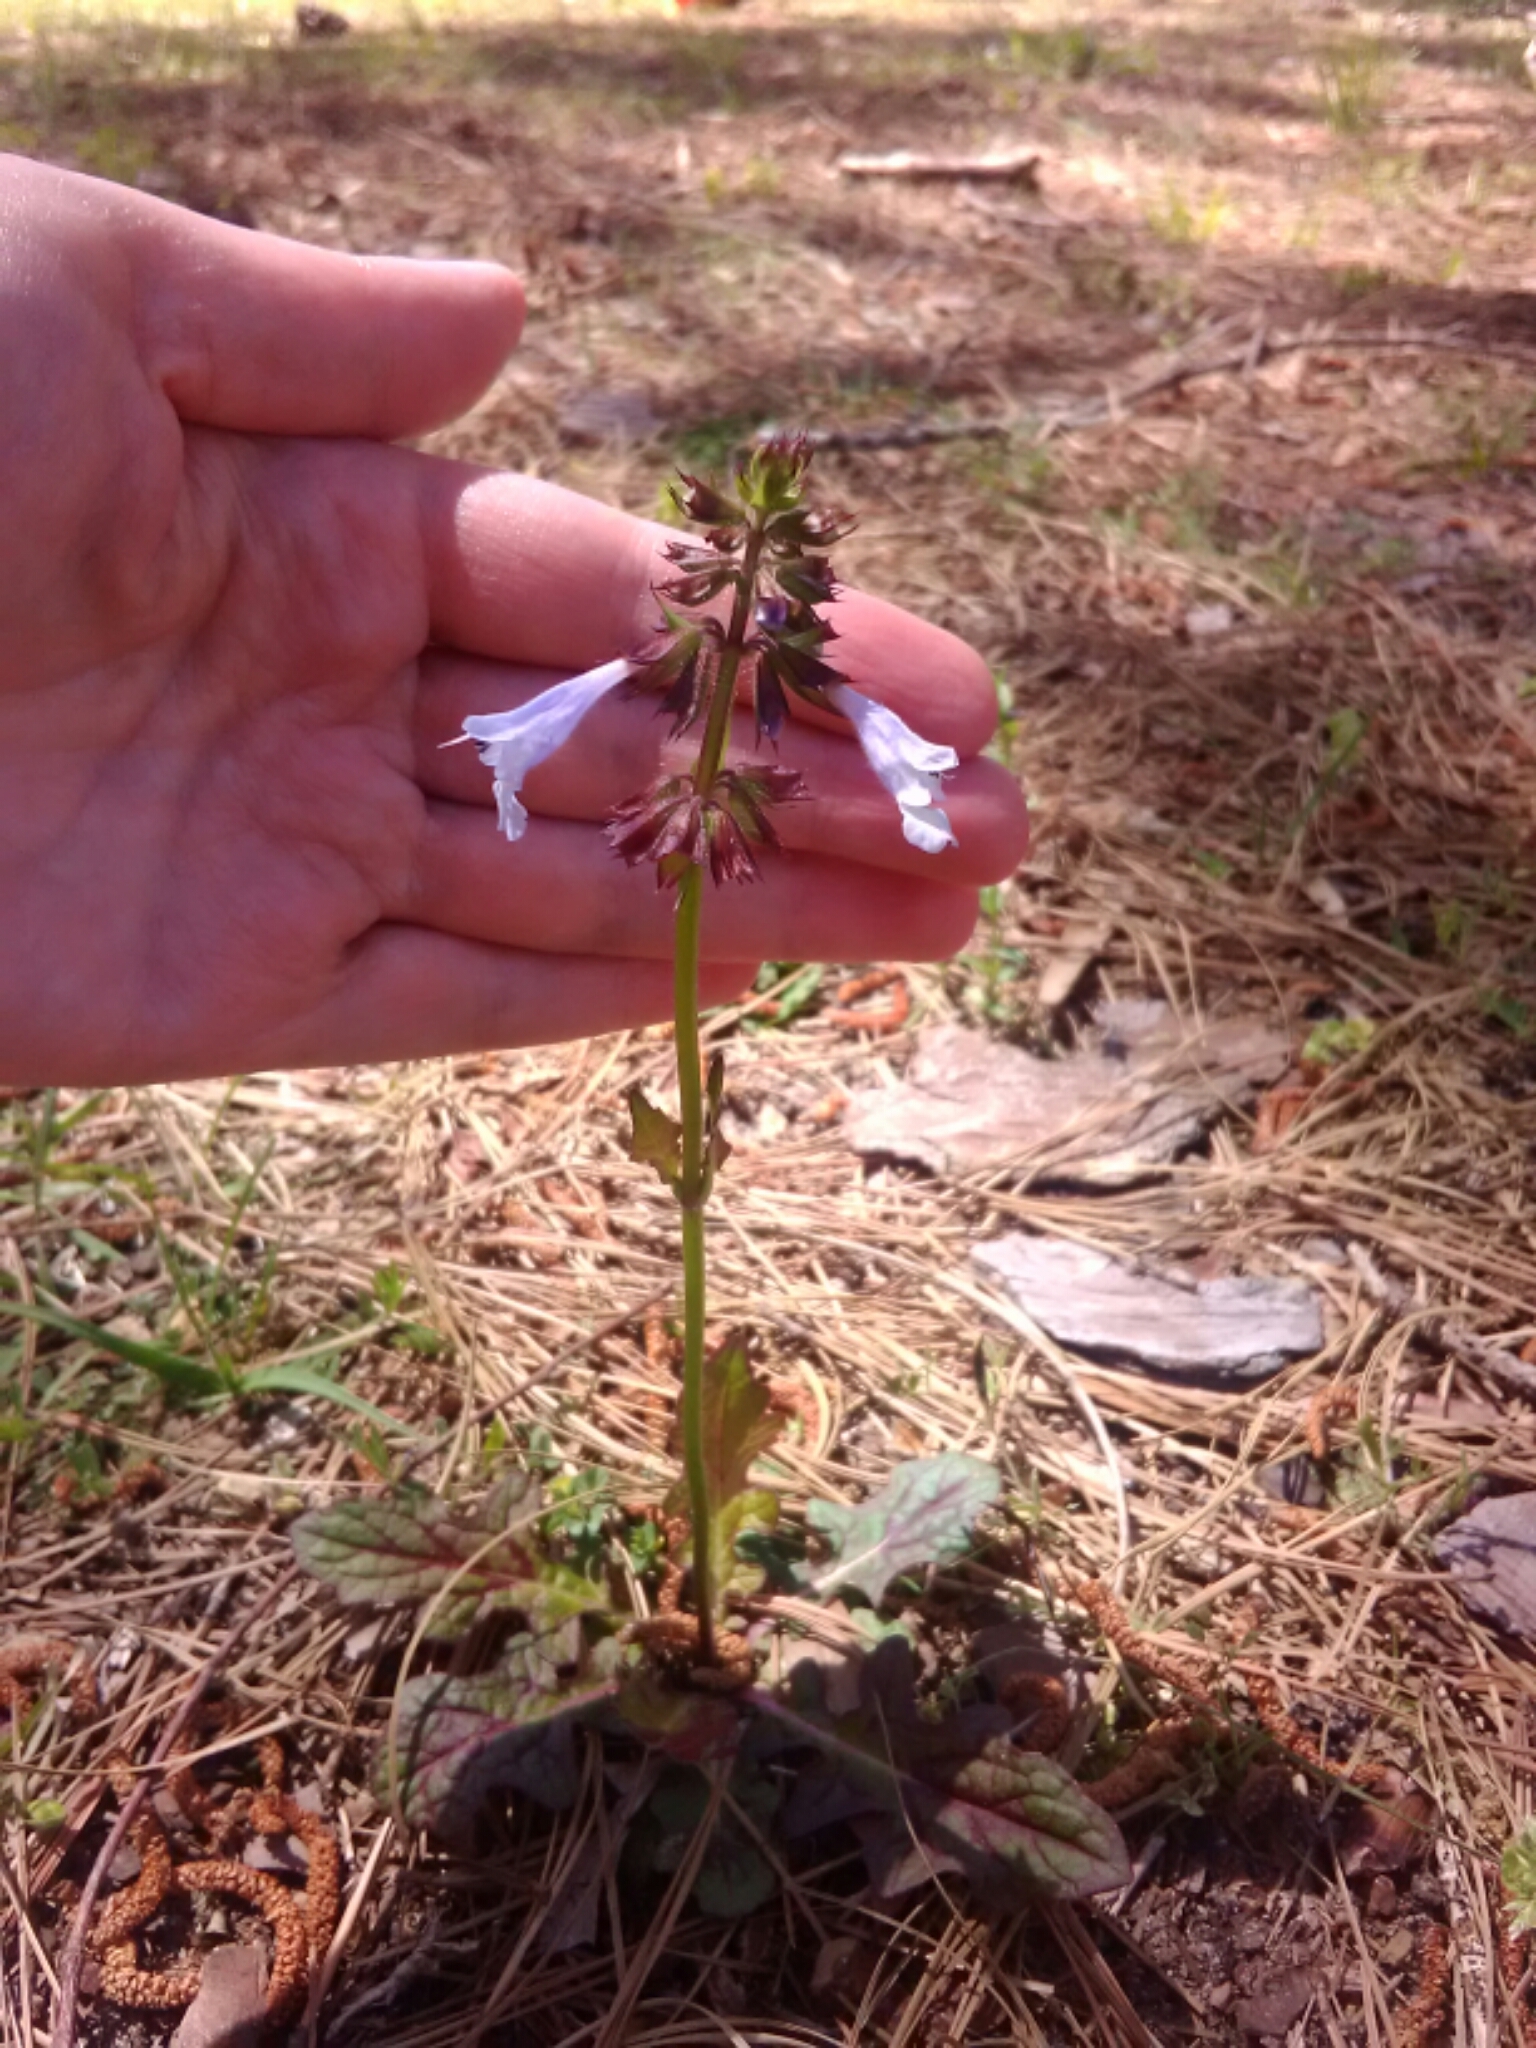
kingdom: Plantae
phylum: Tracheophyta
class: Magnoliopsida
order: Lamiales
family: Lamiaceae
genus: Salvia
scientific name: Salvia lyrata
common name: Cancerweed
